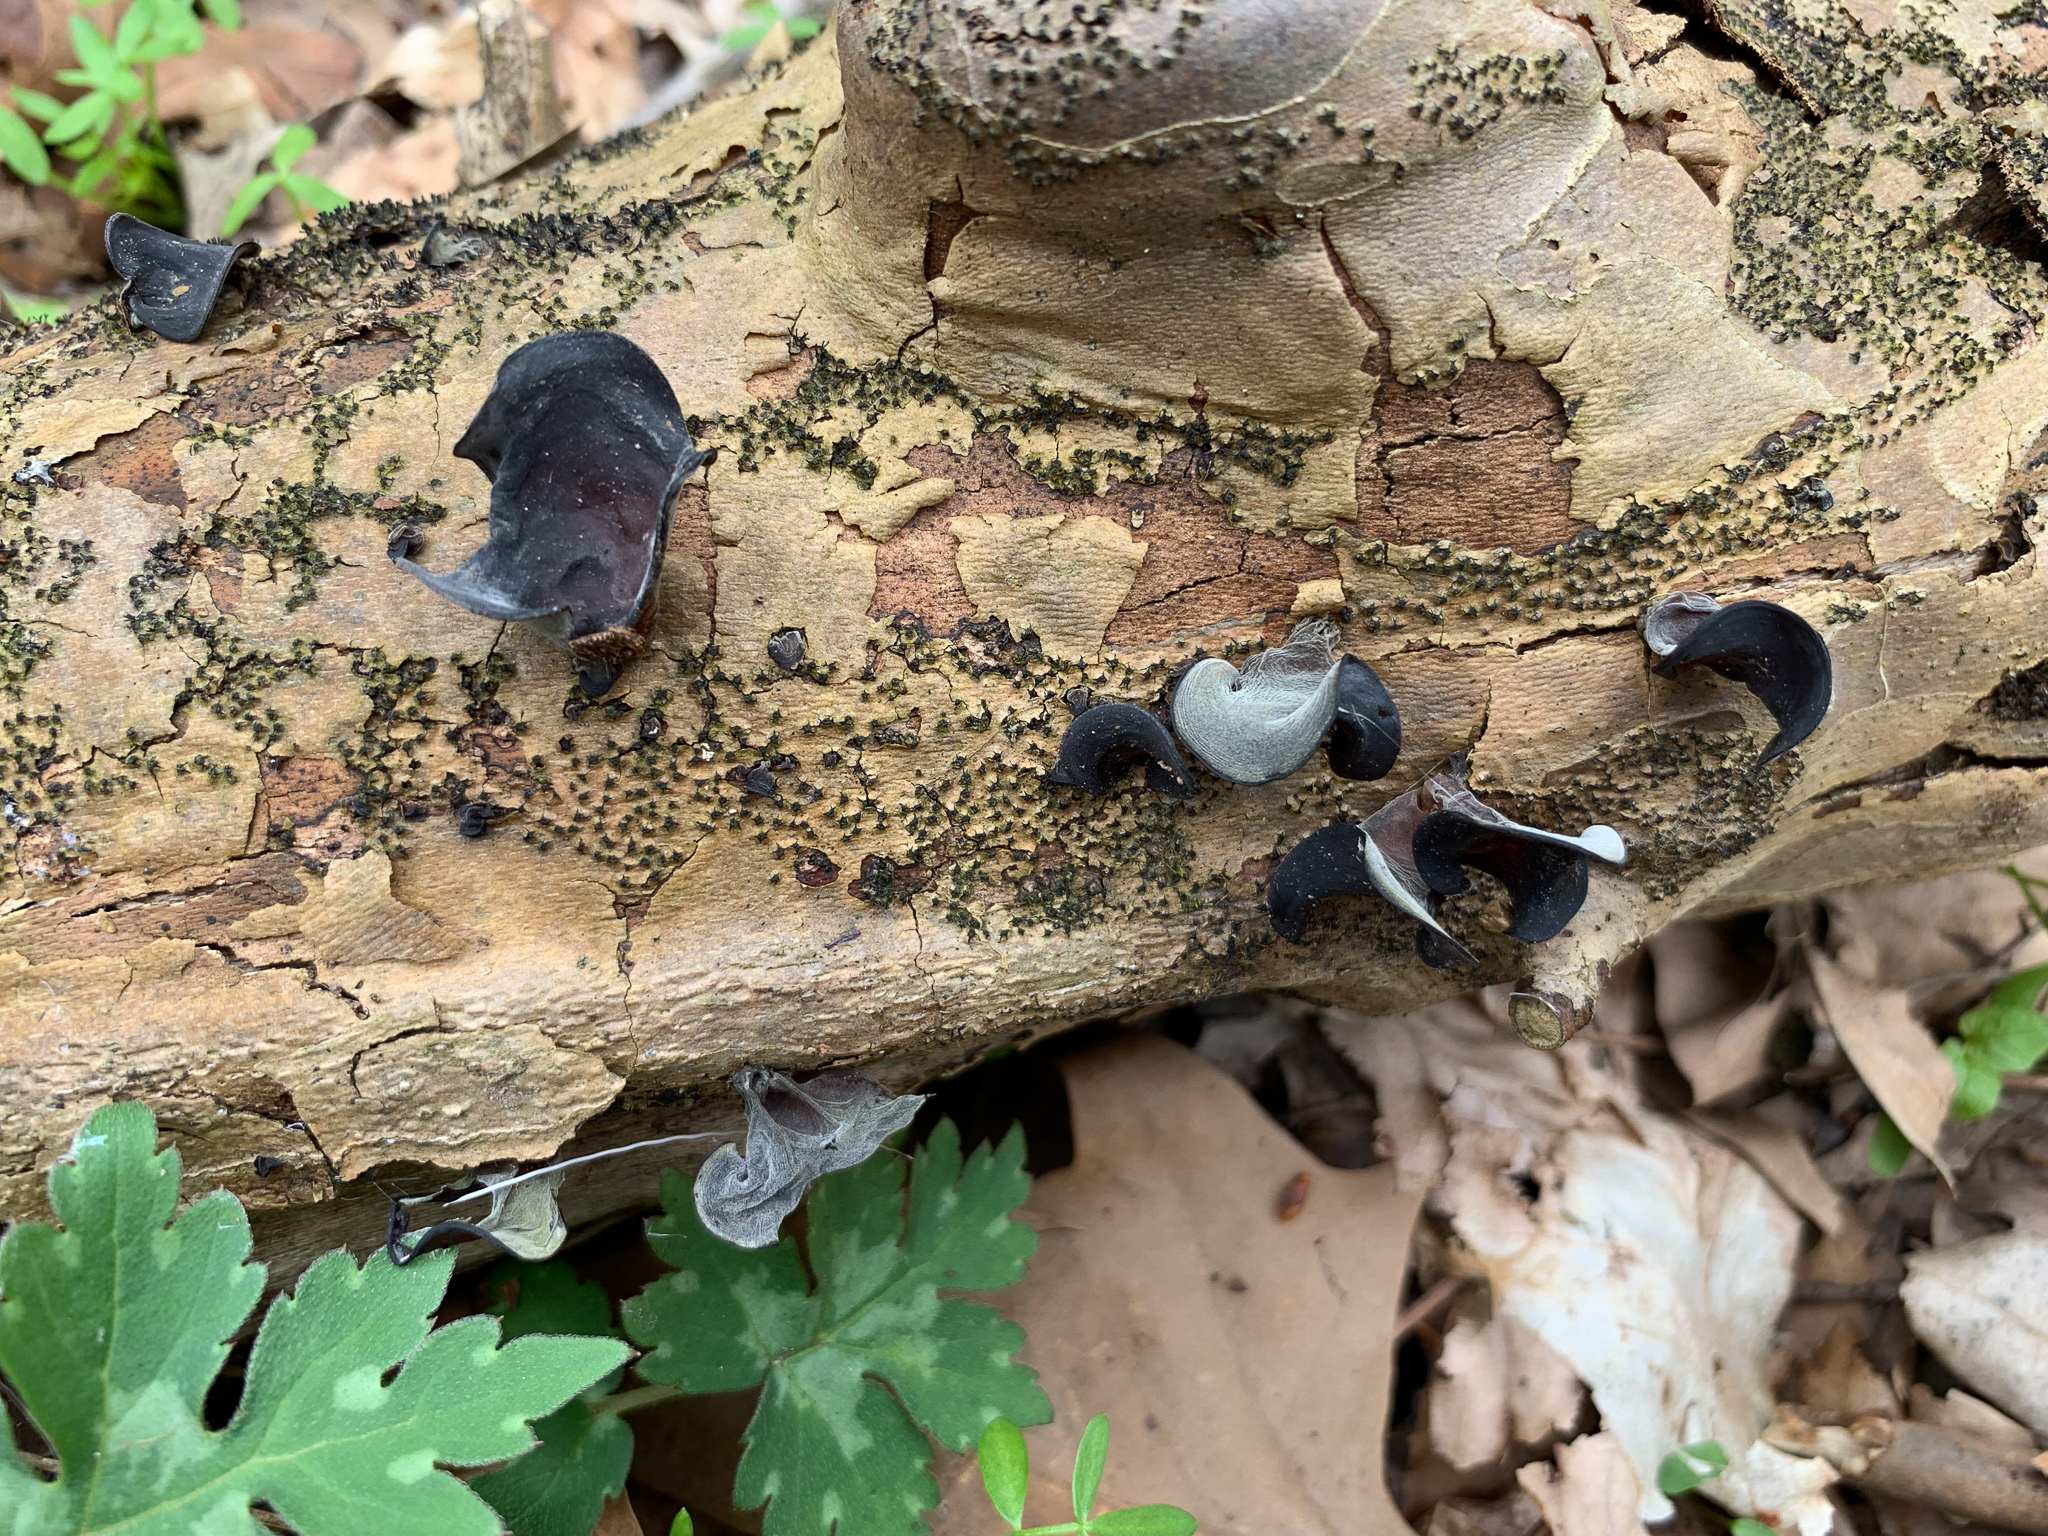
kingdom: Fungi
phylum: Basidiomycota
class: Agaricomycetes
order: Auriculariales
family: Auriculariaceae
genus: Auricularia
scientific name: Auricularia angiospermarum
